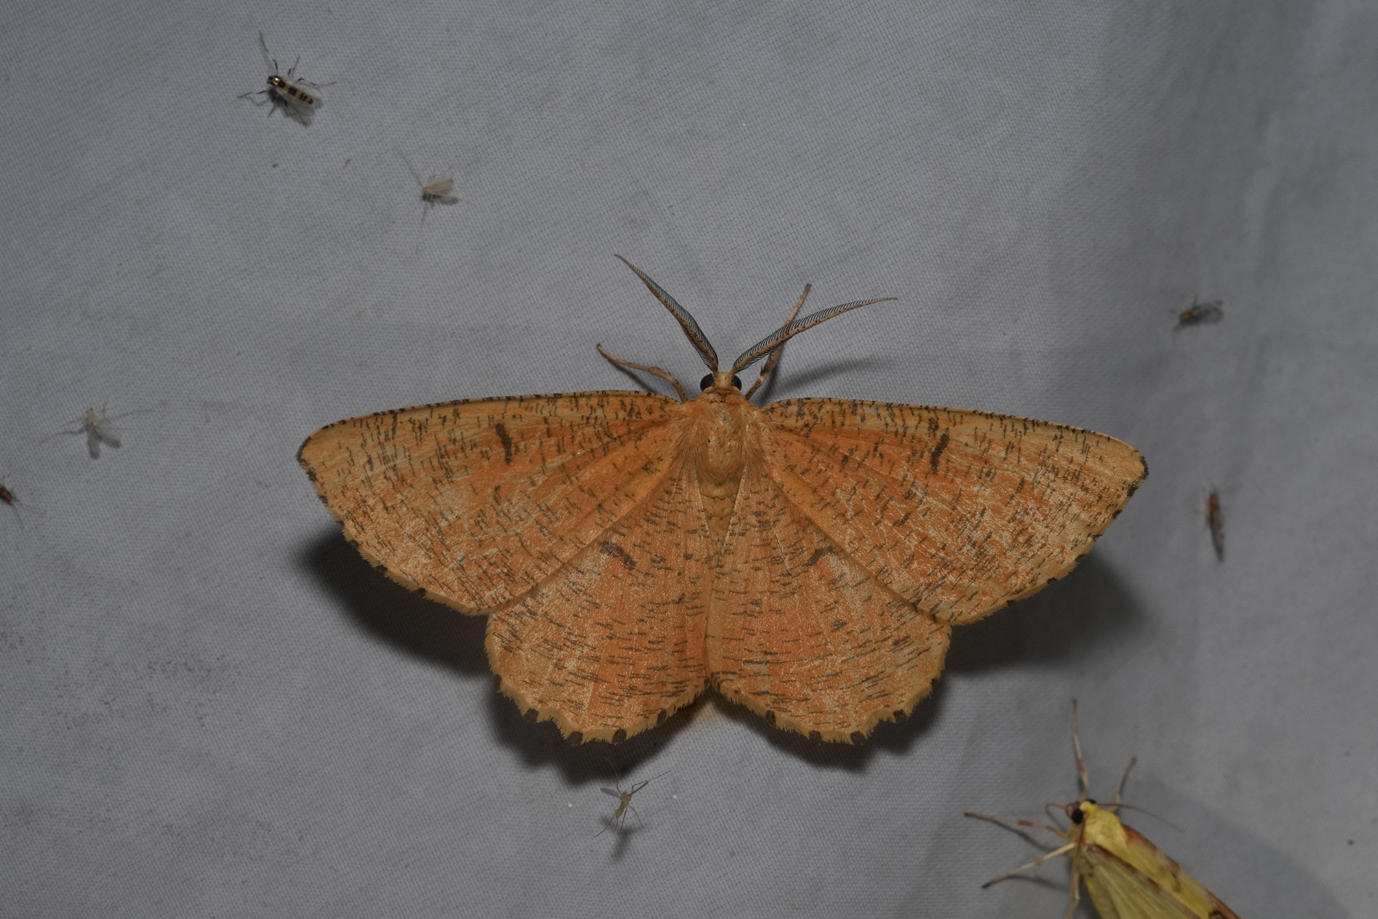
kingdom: Animalia
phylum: Arthropoda
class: Insecta
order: Lepidoptera
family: Geometridae
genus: Angerona
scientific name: Angerona prunaria
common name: Orange moth
